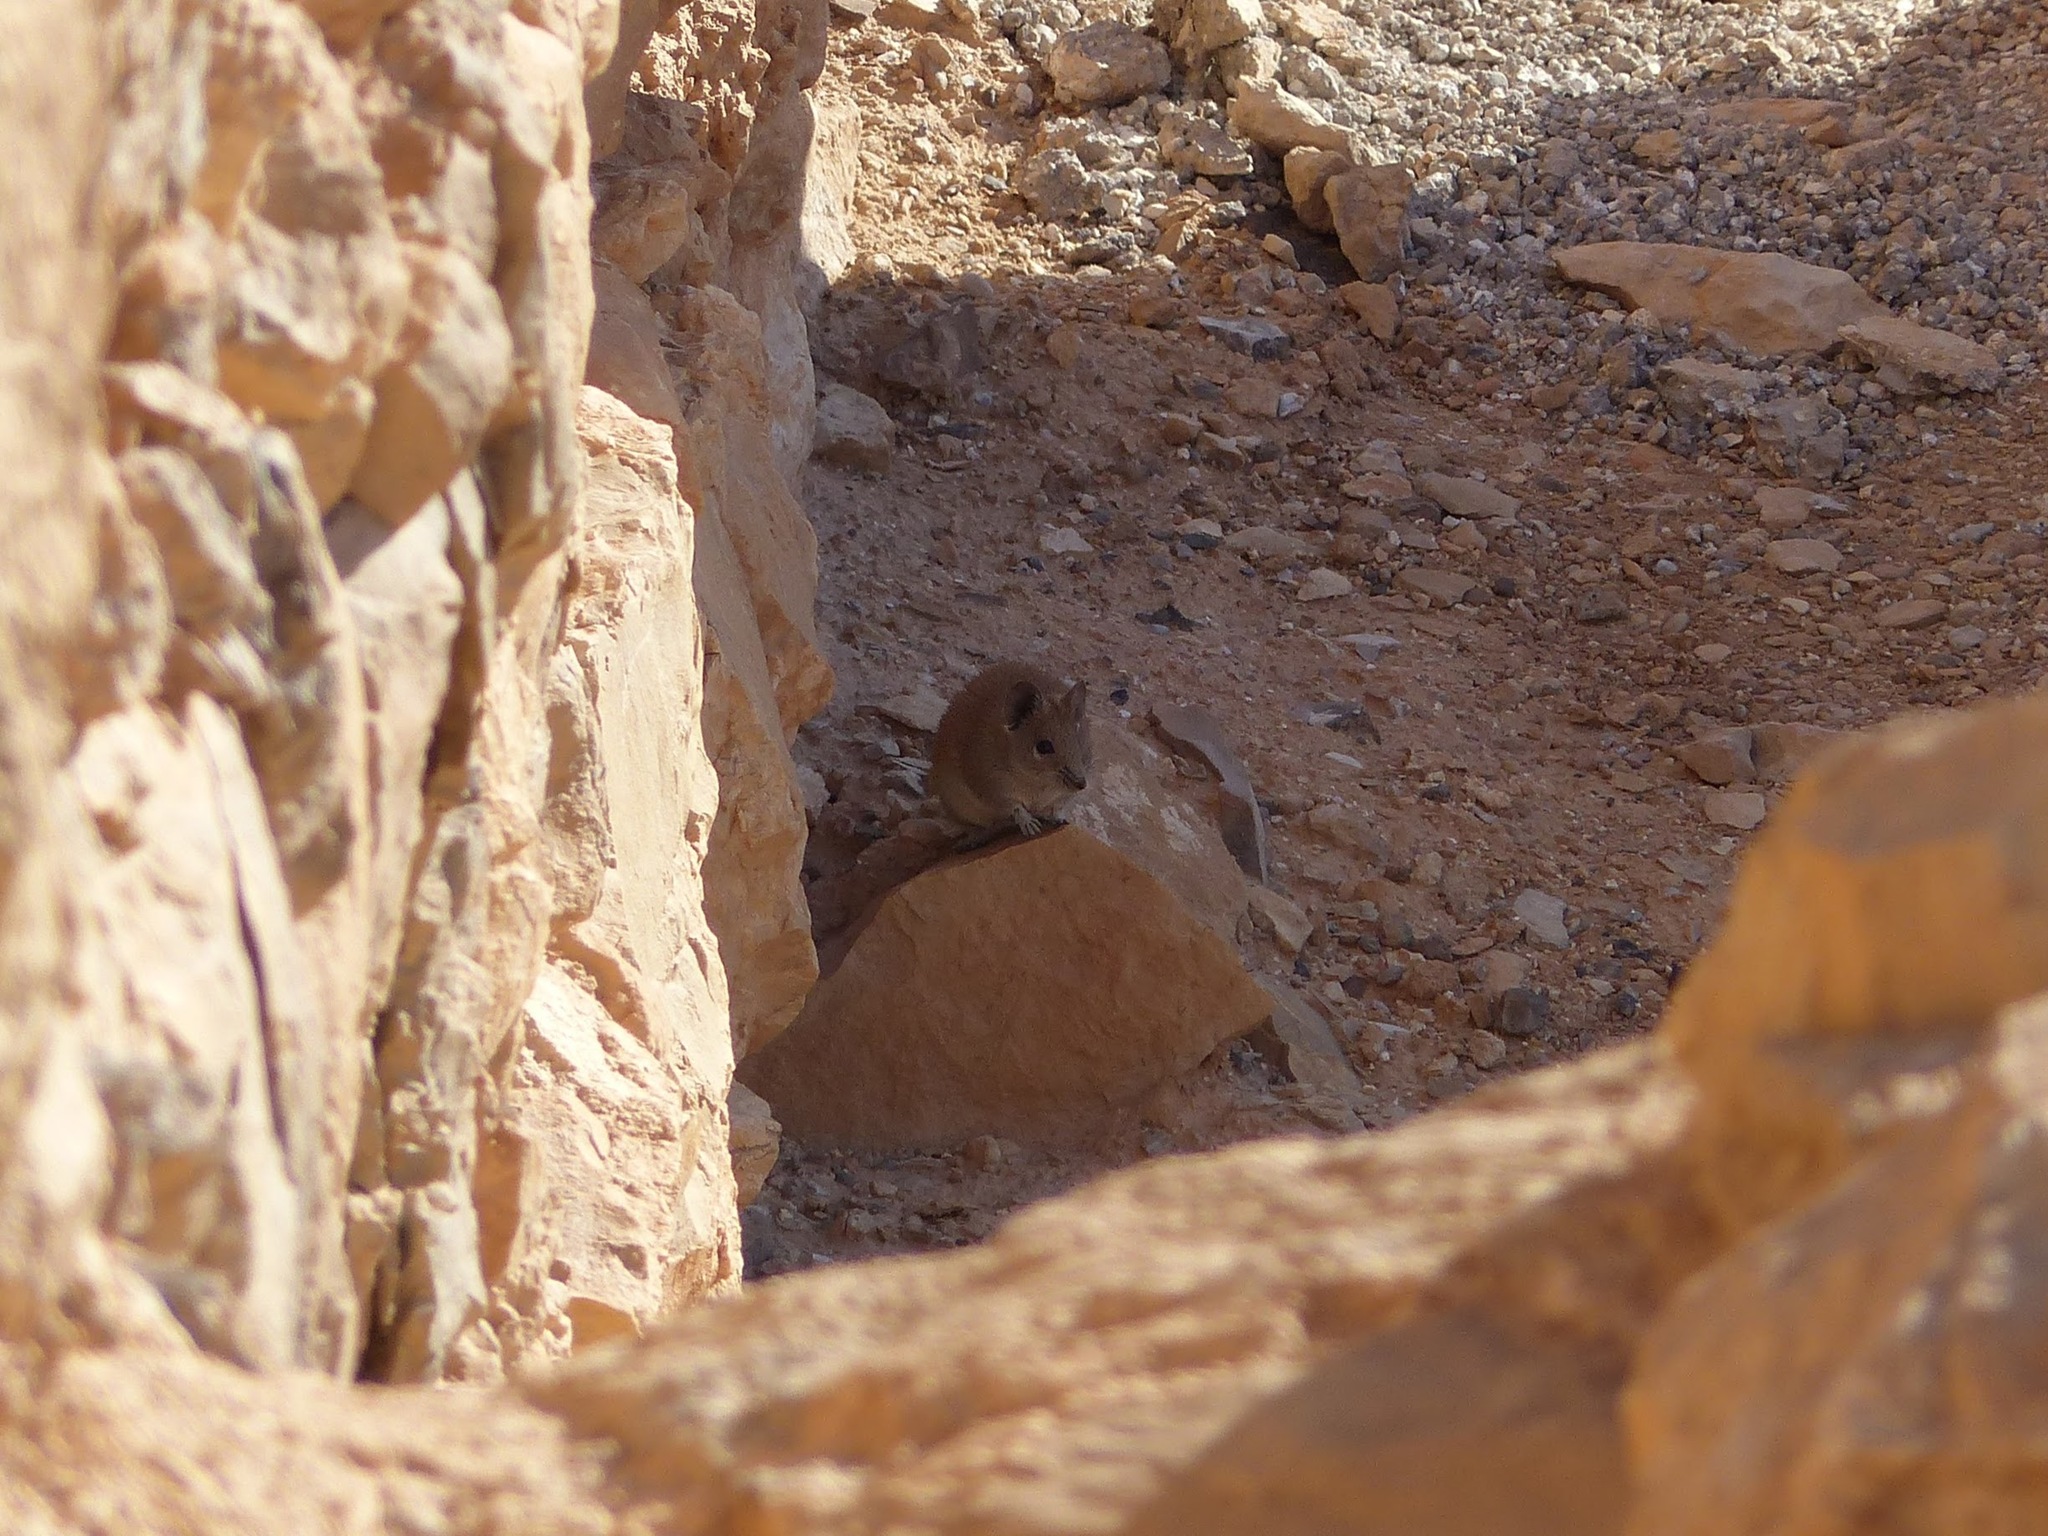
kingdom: Animalia
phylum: Chordata
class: Mammalia
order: Rodentia
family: Muridae
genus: Acomys
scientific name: Acomys russatus
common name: Golden spiny mouse
